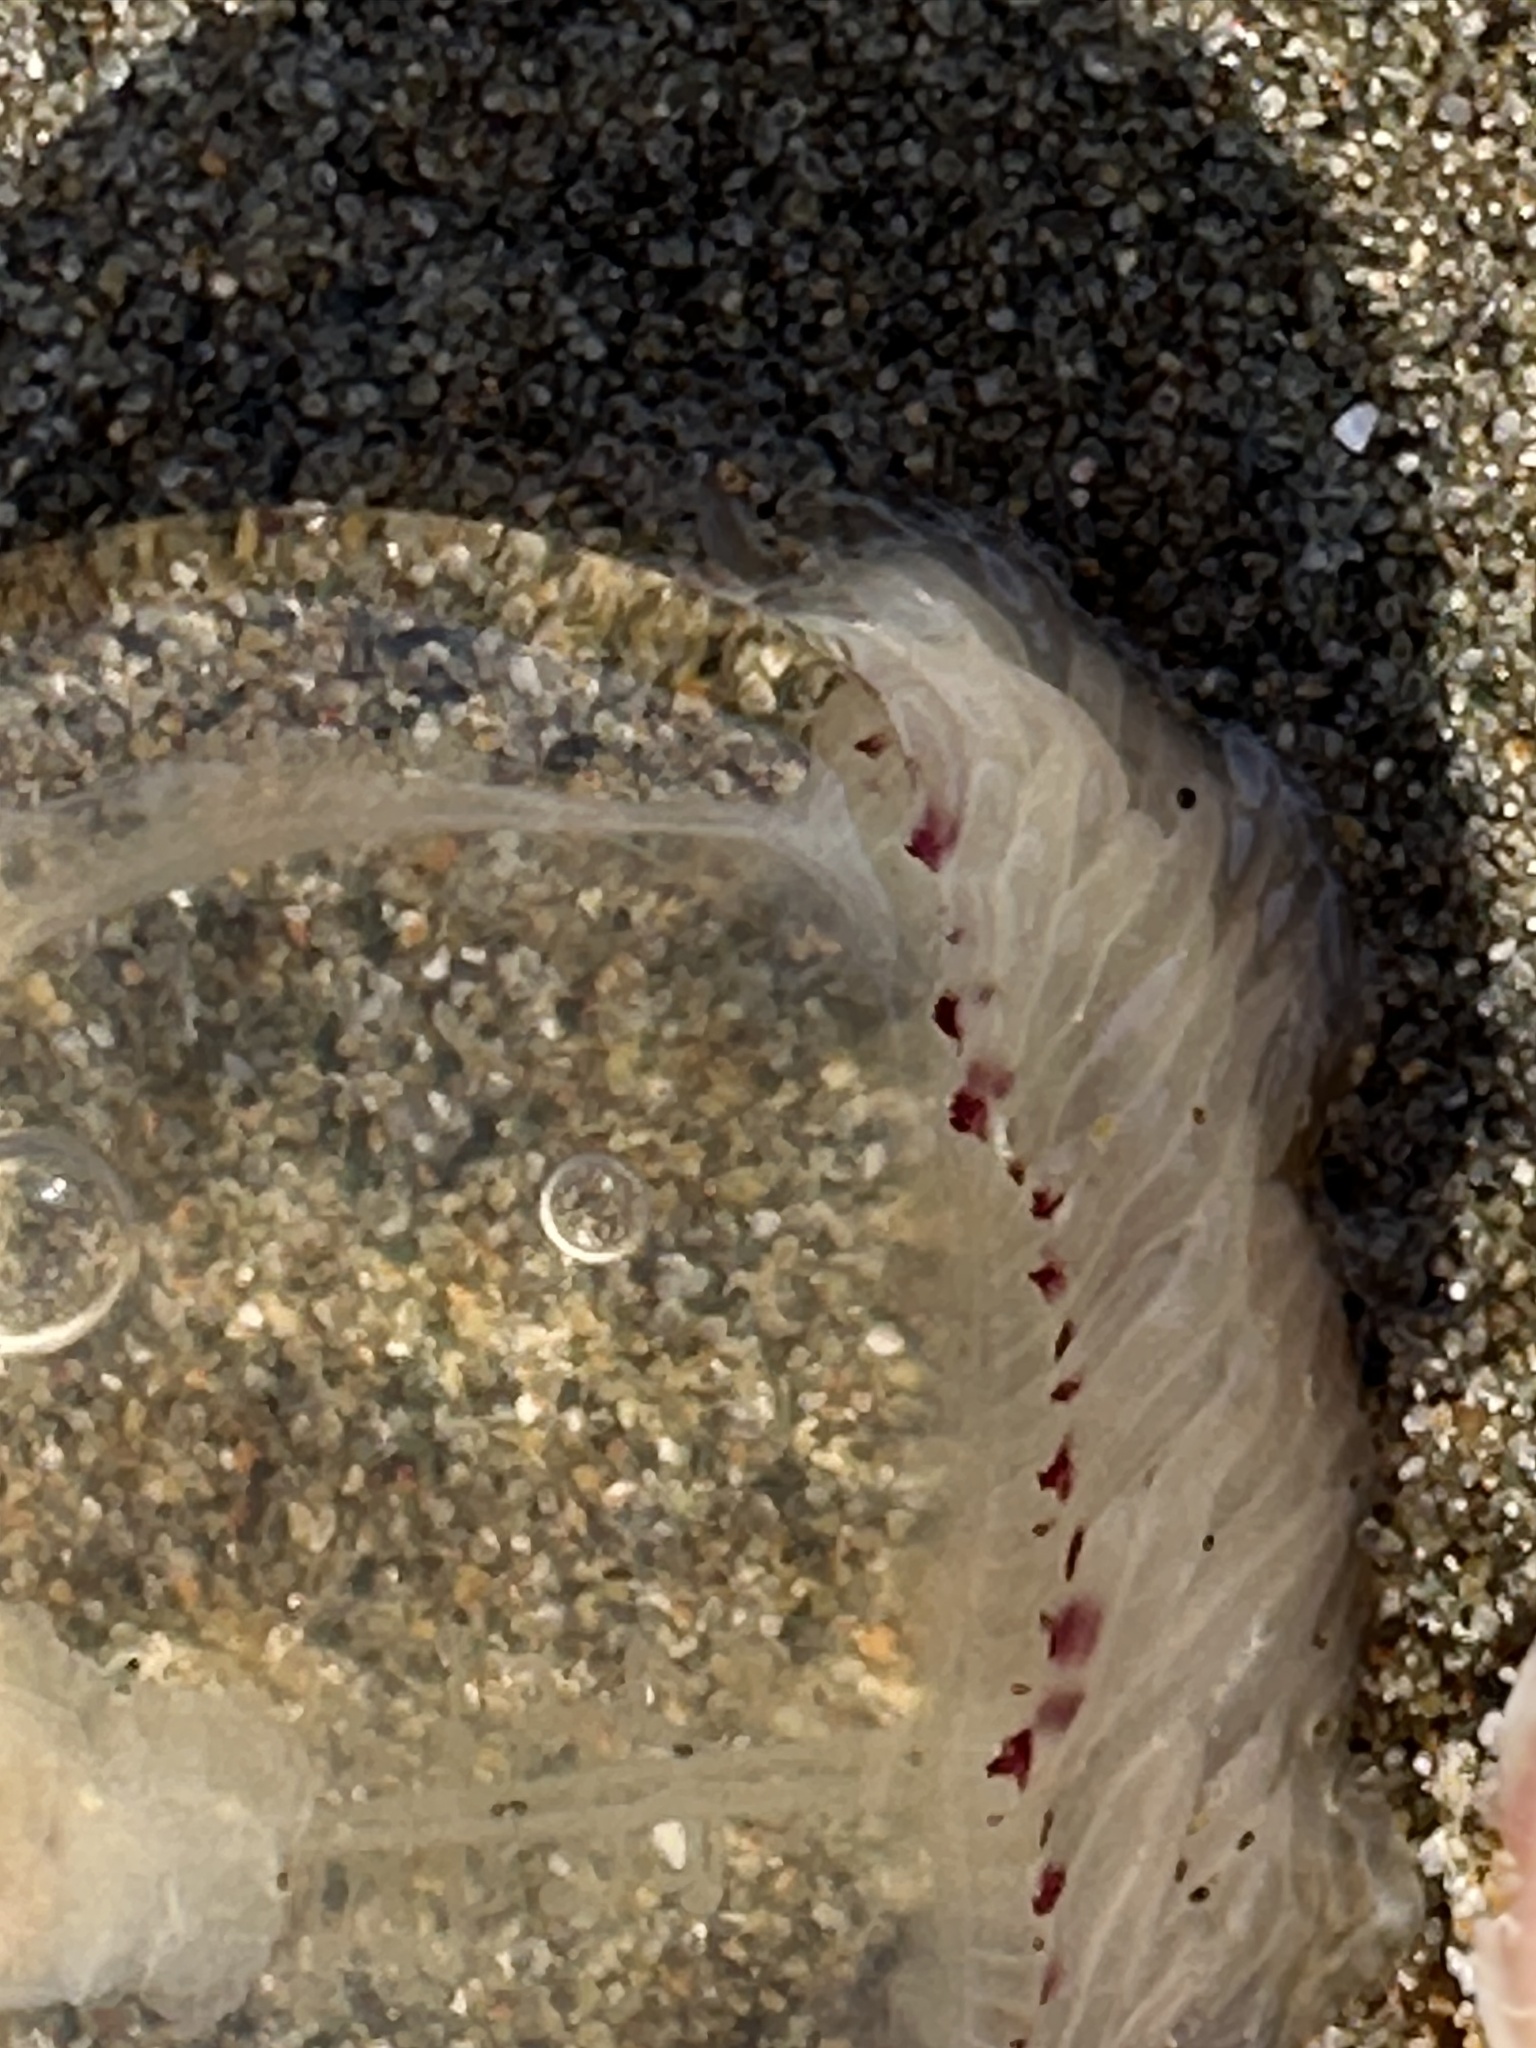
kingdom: Animalia
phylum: Cnidaria
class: Hydrozoa
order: Anthoathecata
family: Corynidae
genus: Polyorchis
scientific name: Polyorchis penicillatus
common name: Penicillate jellyfish
